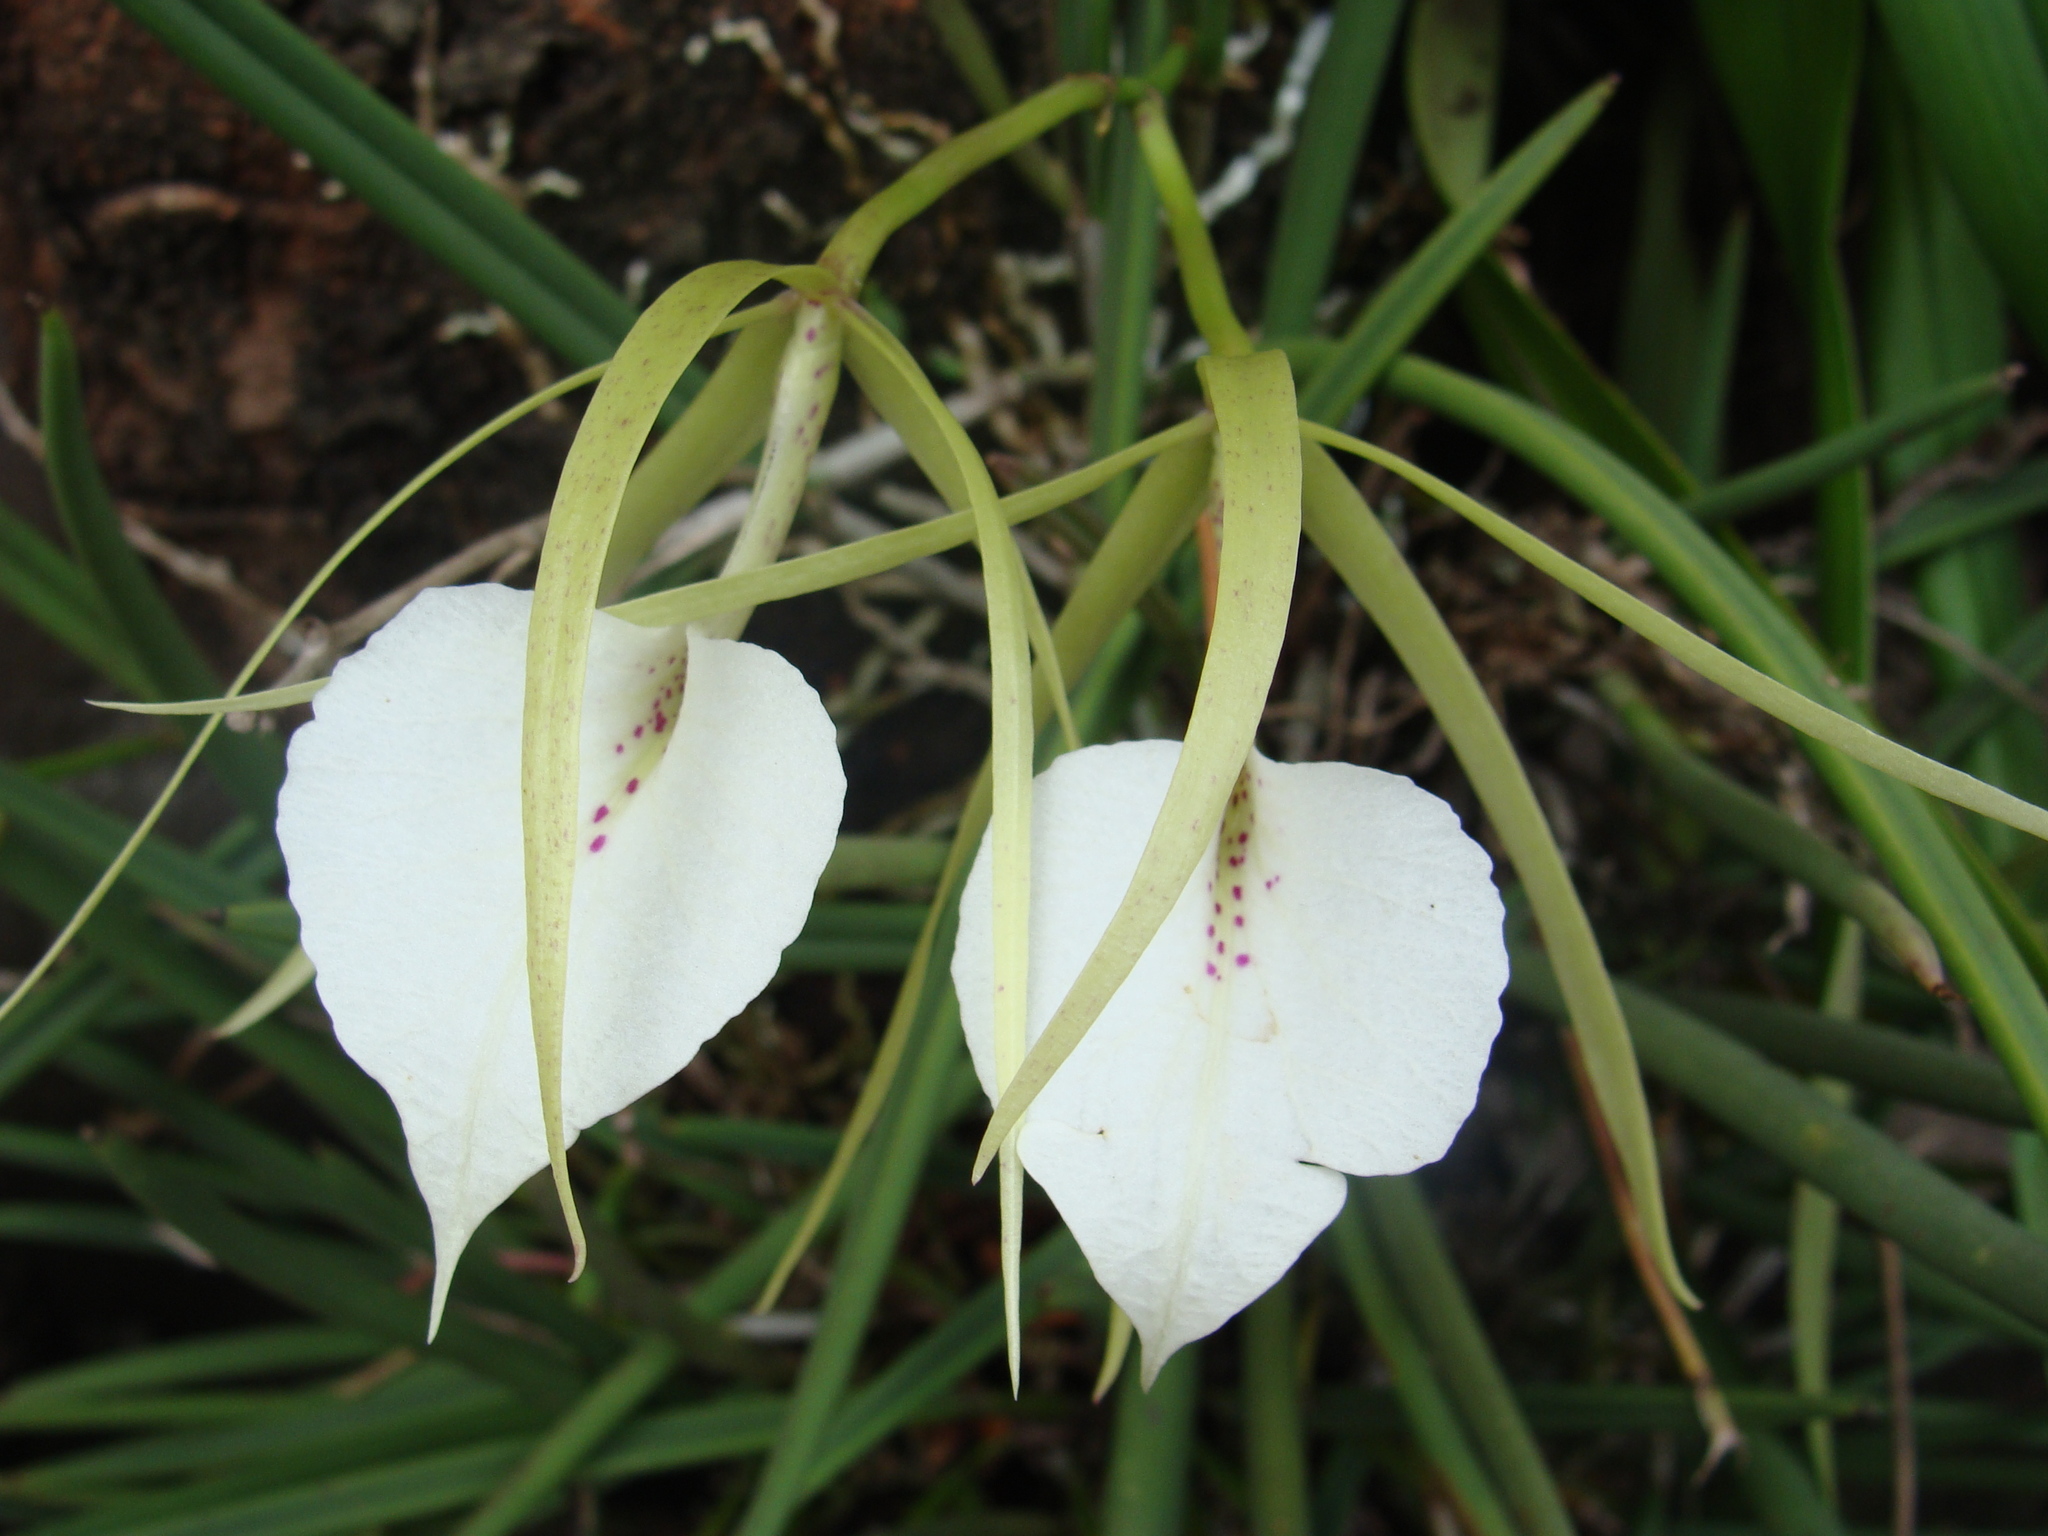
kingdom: Plantae
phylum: Tracheophyta
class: Liliopsida
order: Asparagales
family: Orchidaceae
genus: Brassavola
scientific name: Brassavola nodosa
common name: Lady of the night
